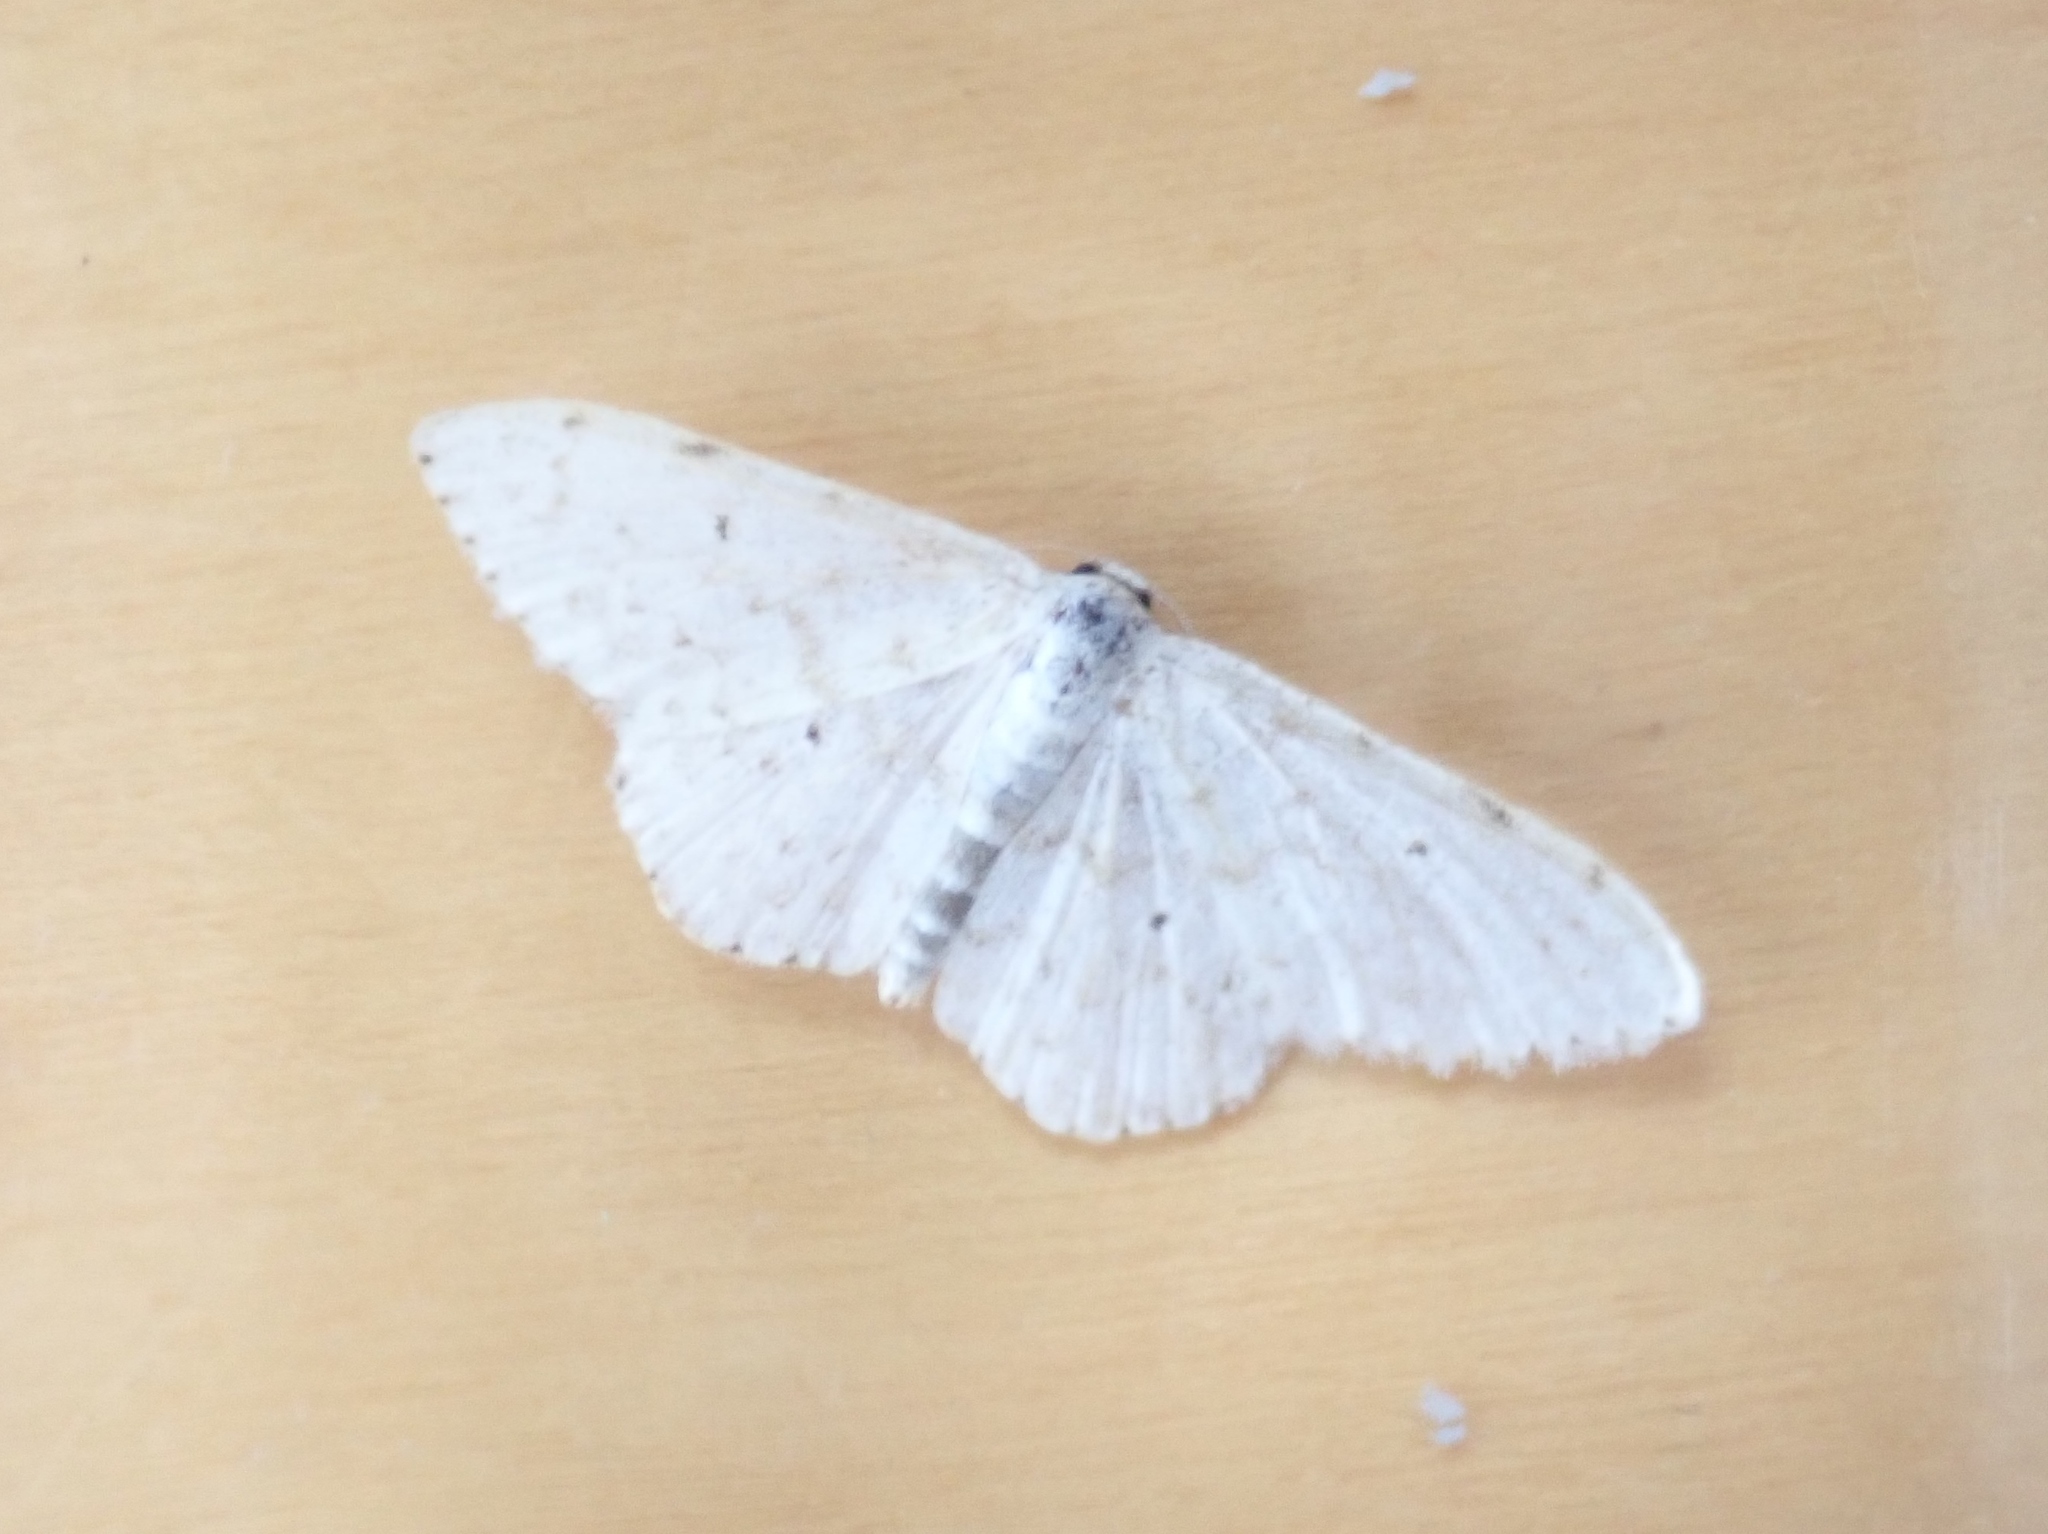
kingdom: Animalia
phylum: Arthropoda
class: Insecta
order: Lepidoptera
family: Geometridae
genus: Scopula
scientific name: Scopula marginepunctata
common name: Mullein wave
